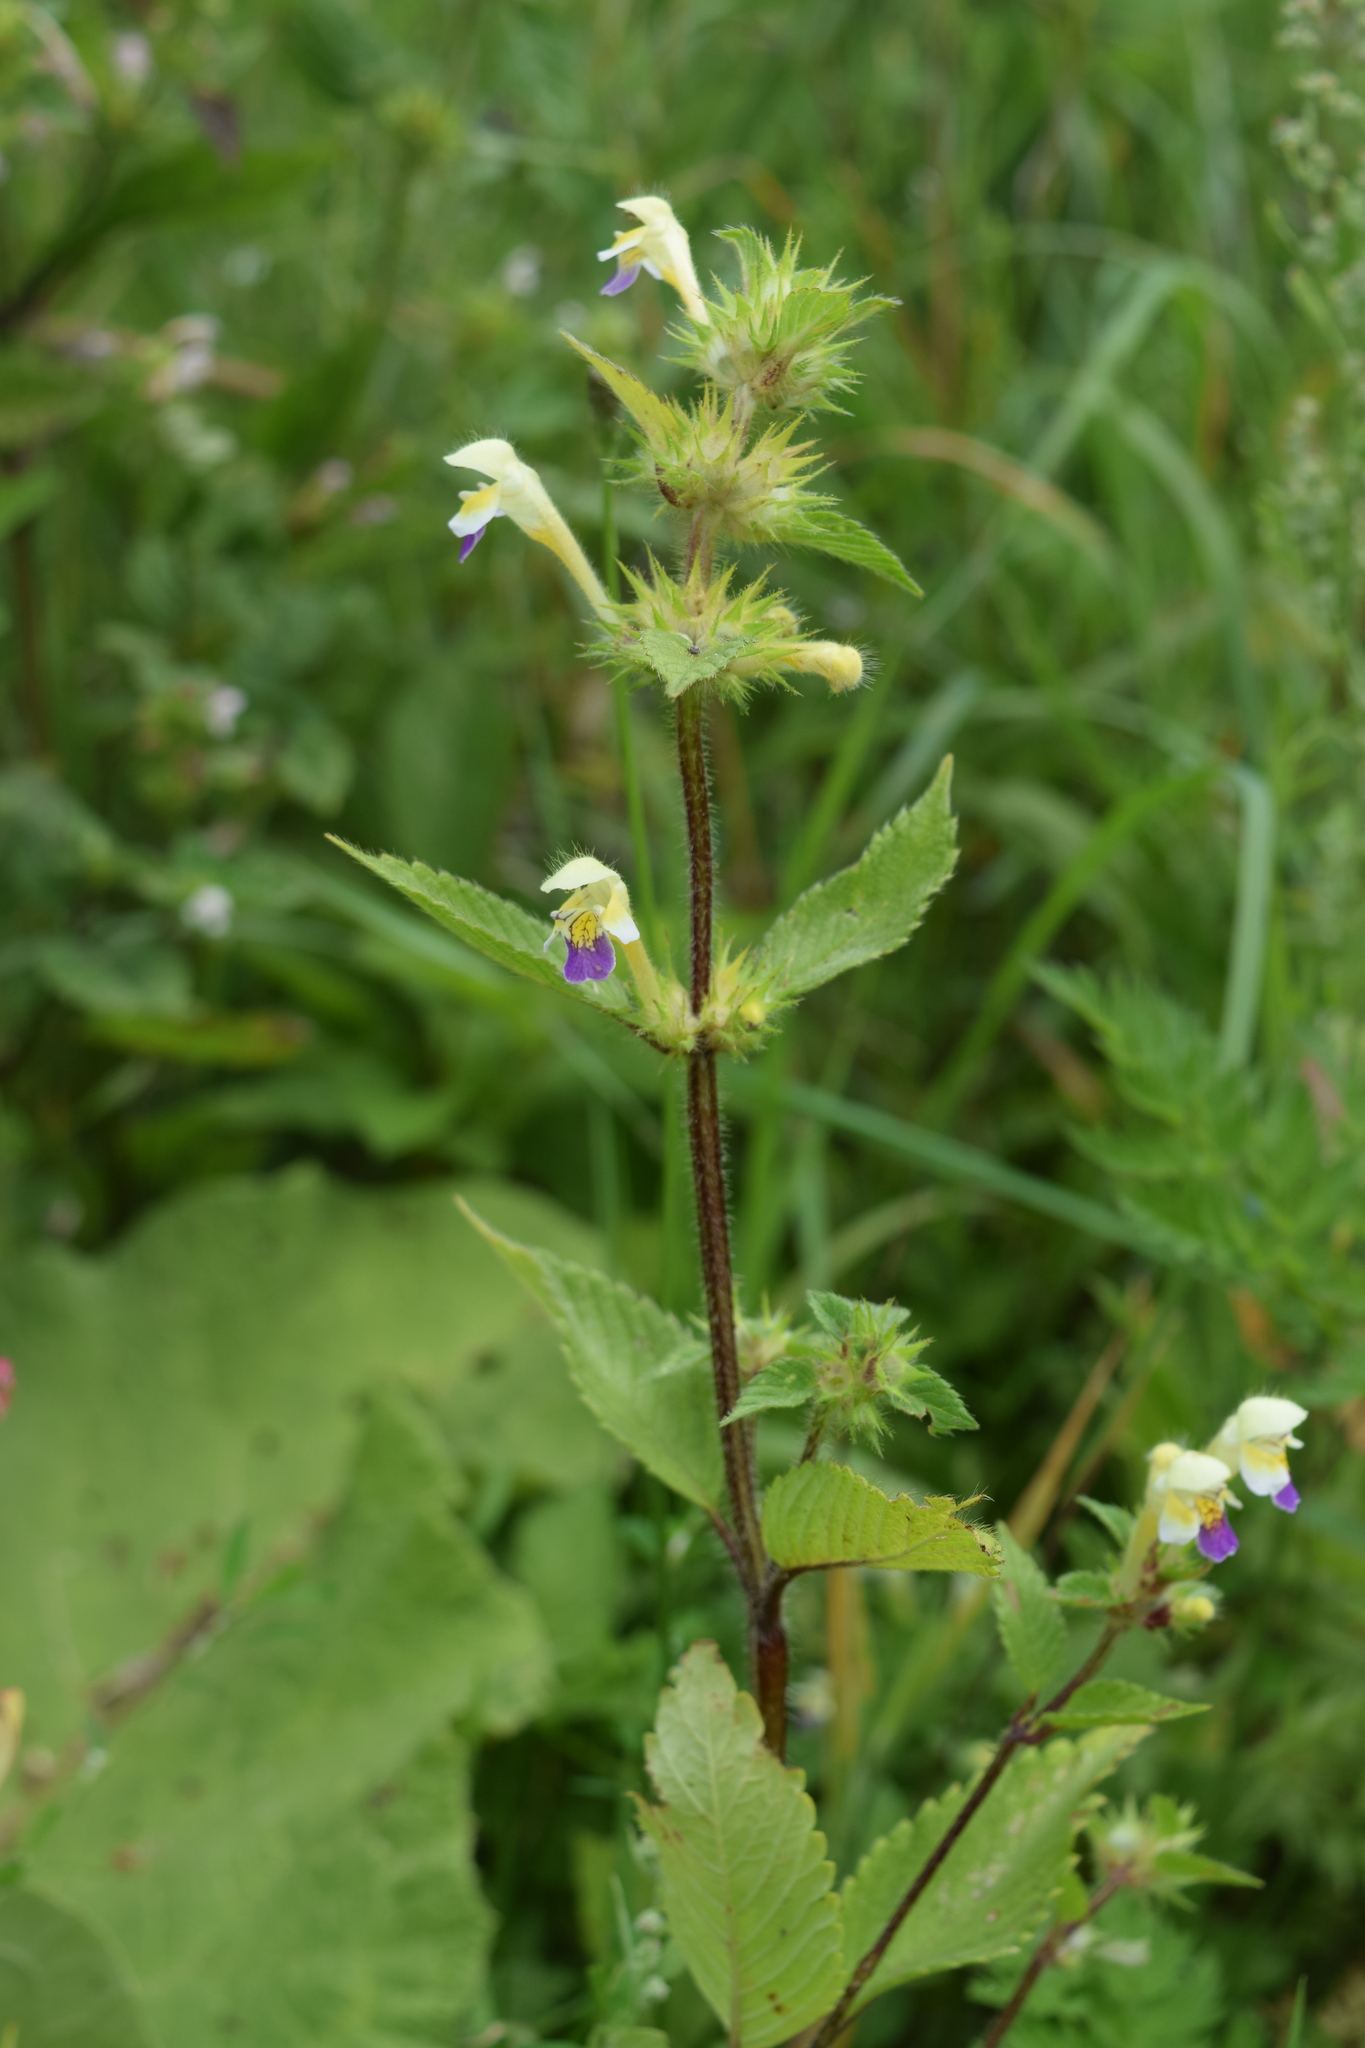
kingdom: Plantae
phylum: Tracheophyta
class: Magnoliopsida
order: Lamiales
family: Lamiaceae
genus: Galeopsis
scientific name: Galeopsis speciosa
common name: Large-flowered hemp-nettle
